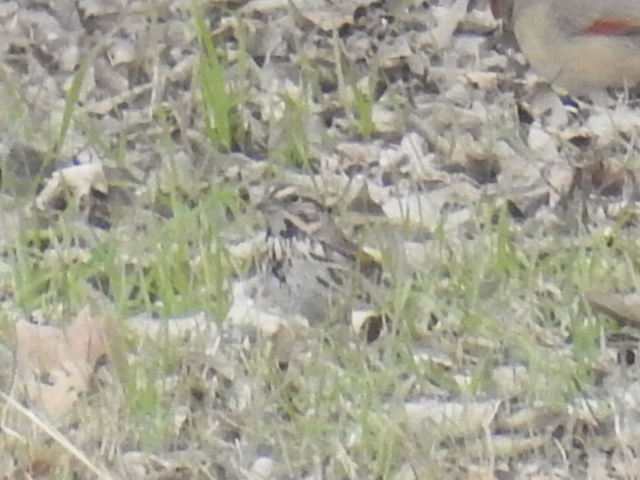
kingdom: Animalia
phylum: Chordata
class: Aves
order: Passeriformes
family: Passerellidae
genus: Melospiza
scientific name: Melospiza melodia
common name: Song sparrow
